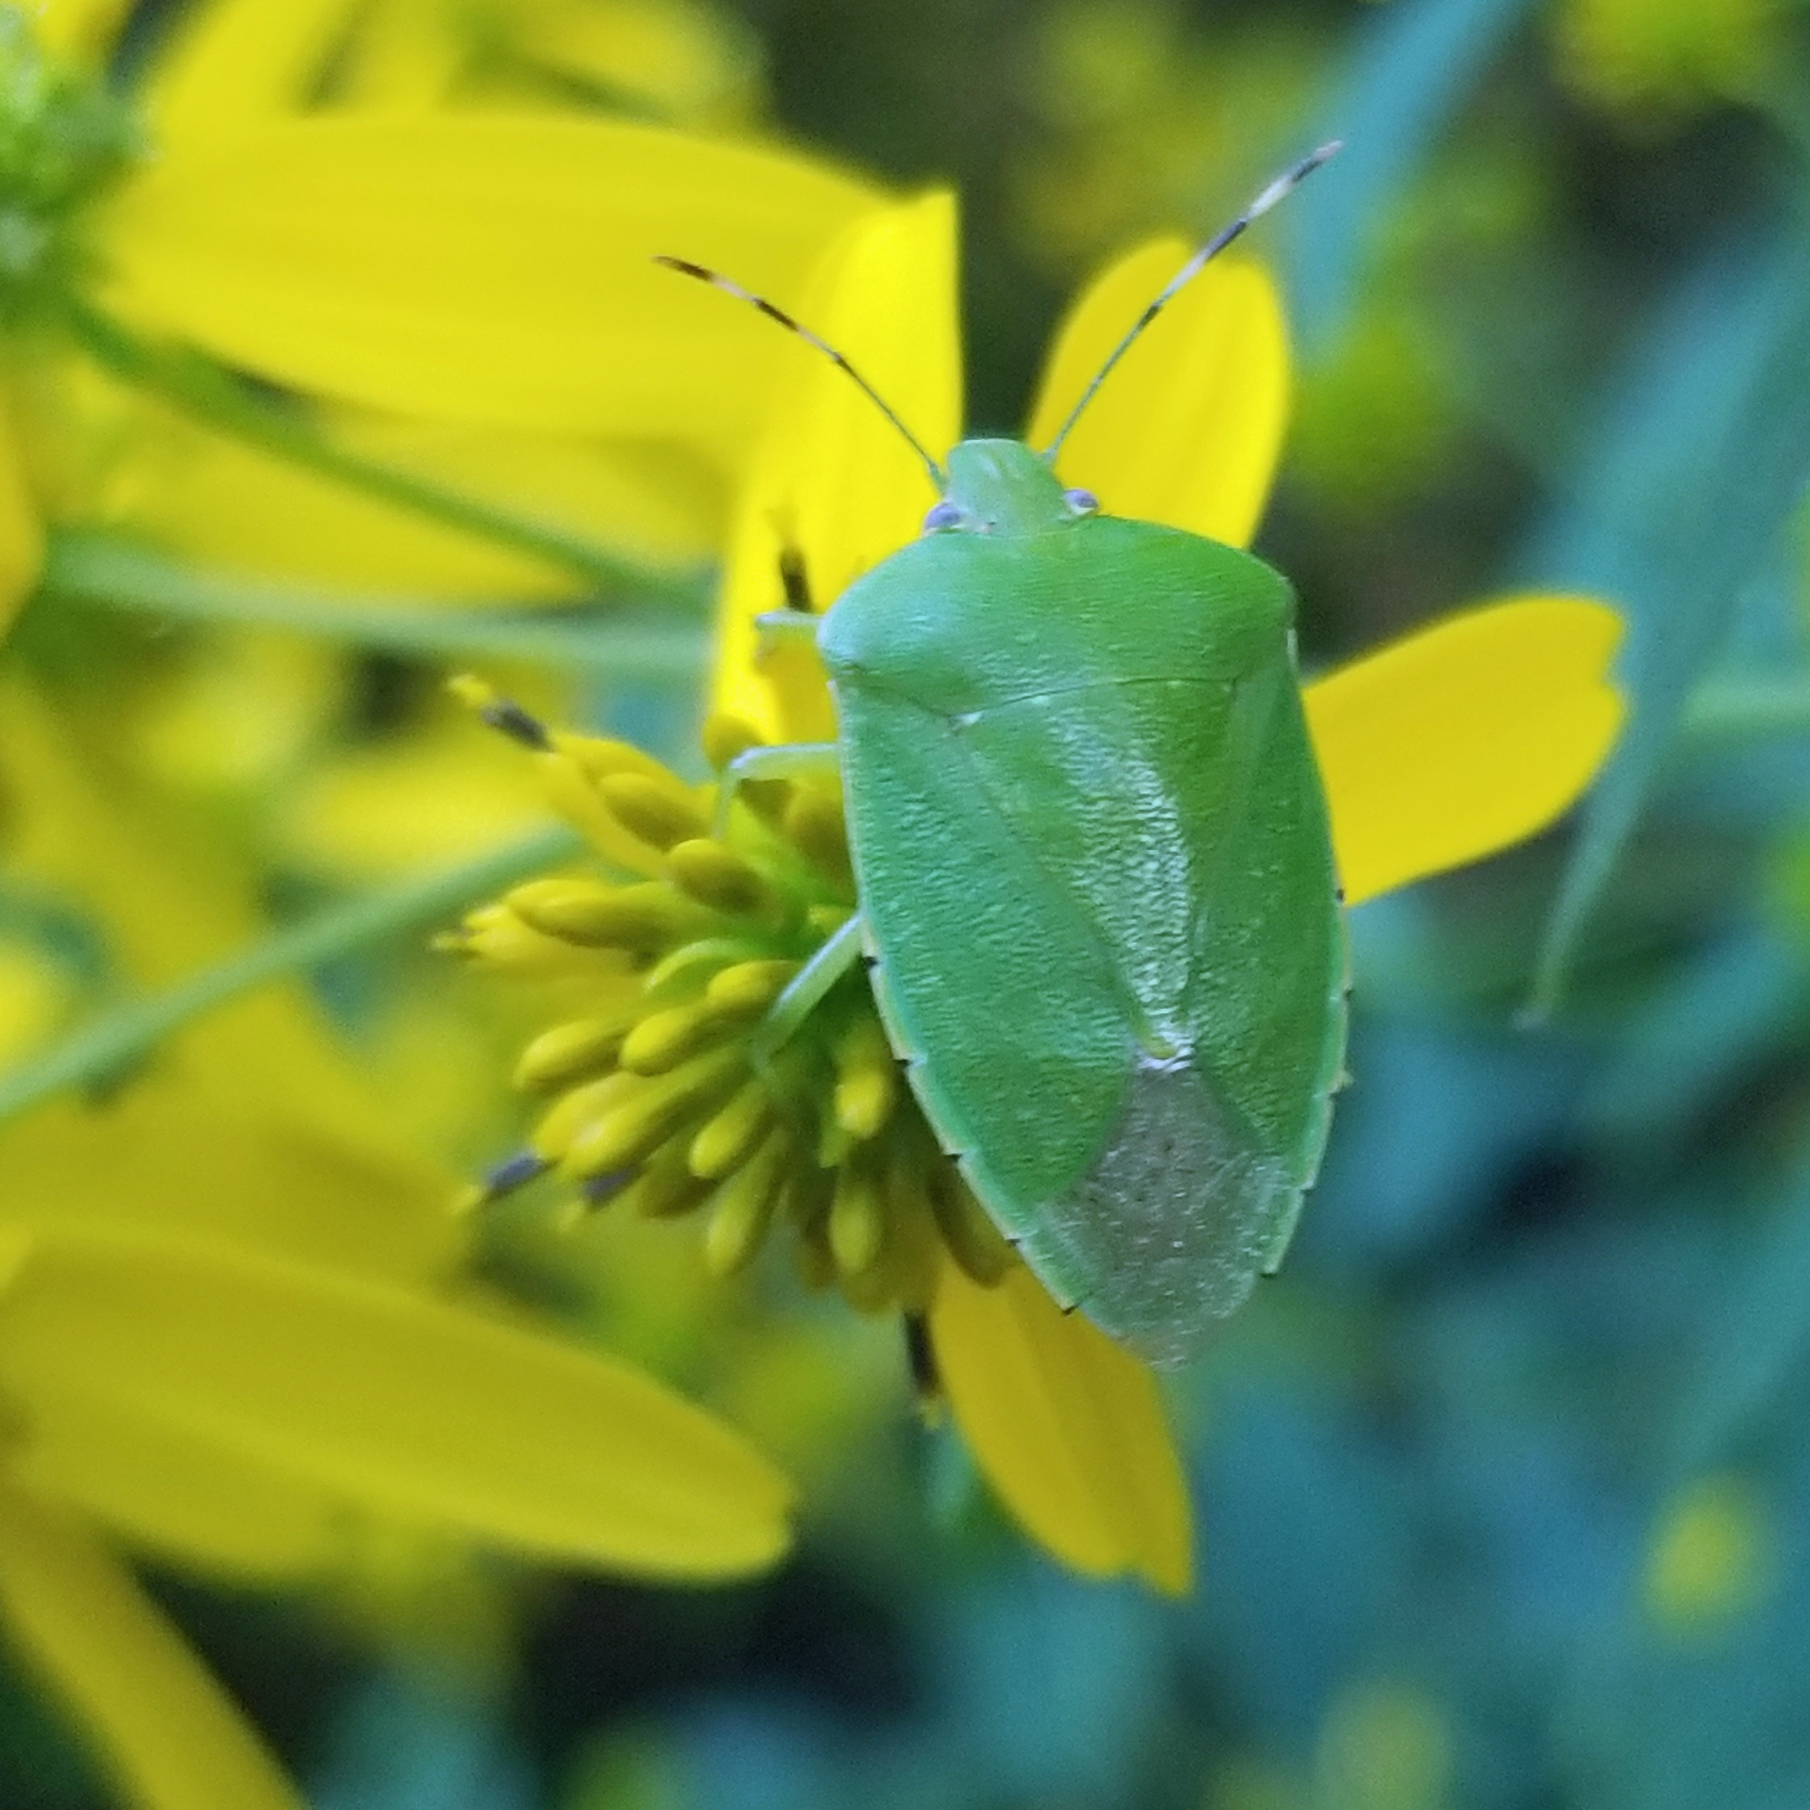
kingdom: Animalia
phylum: Arthropoda
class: Insecta
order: Hemiptera
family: Pentatomidae
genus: Chinavia
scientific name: Chinavia hilaris
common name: Green stink bug
